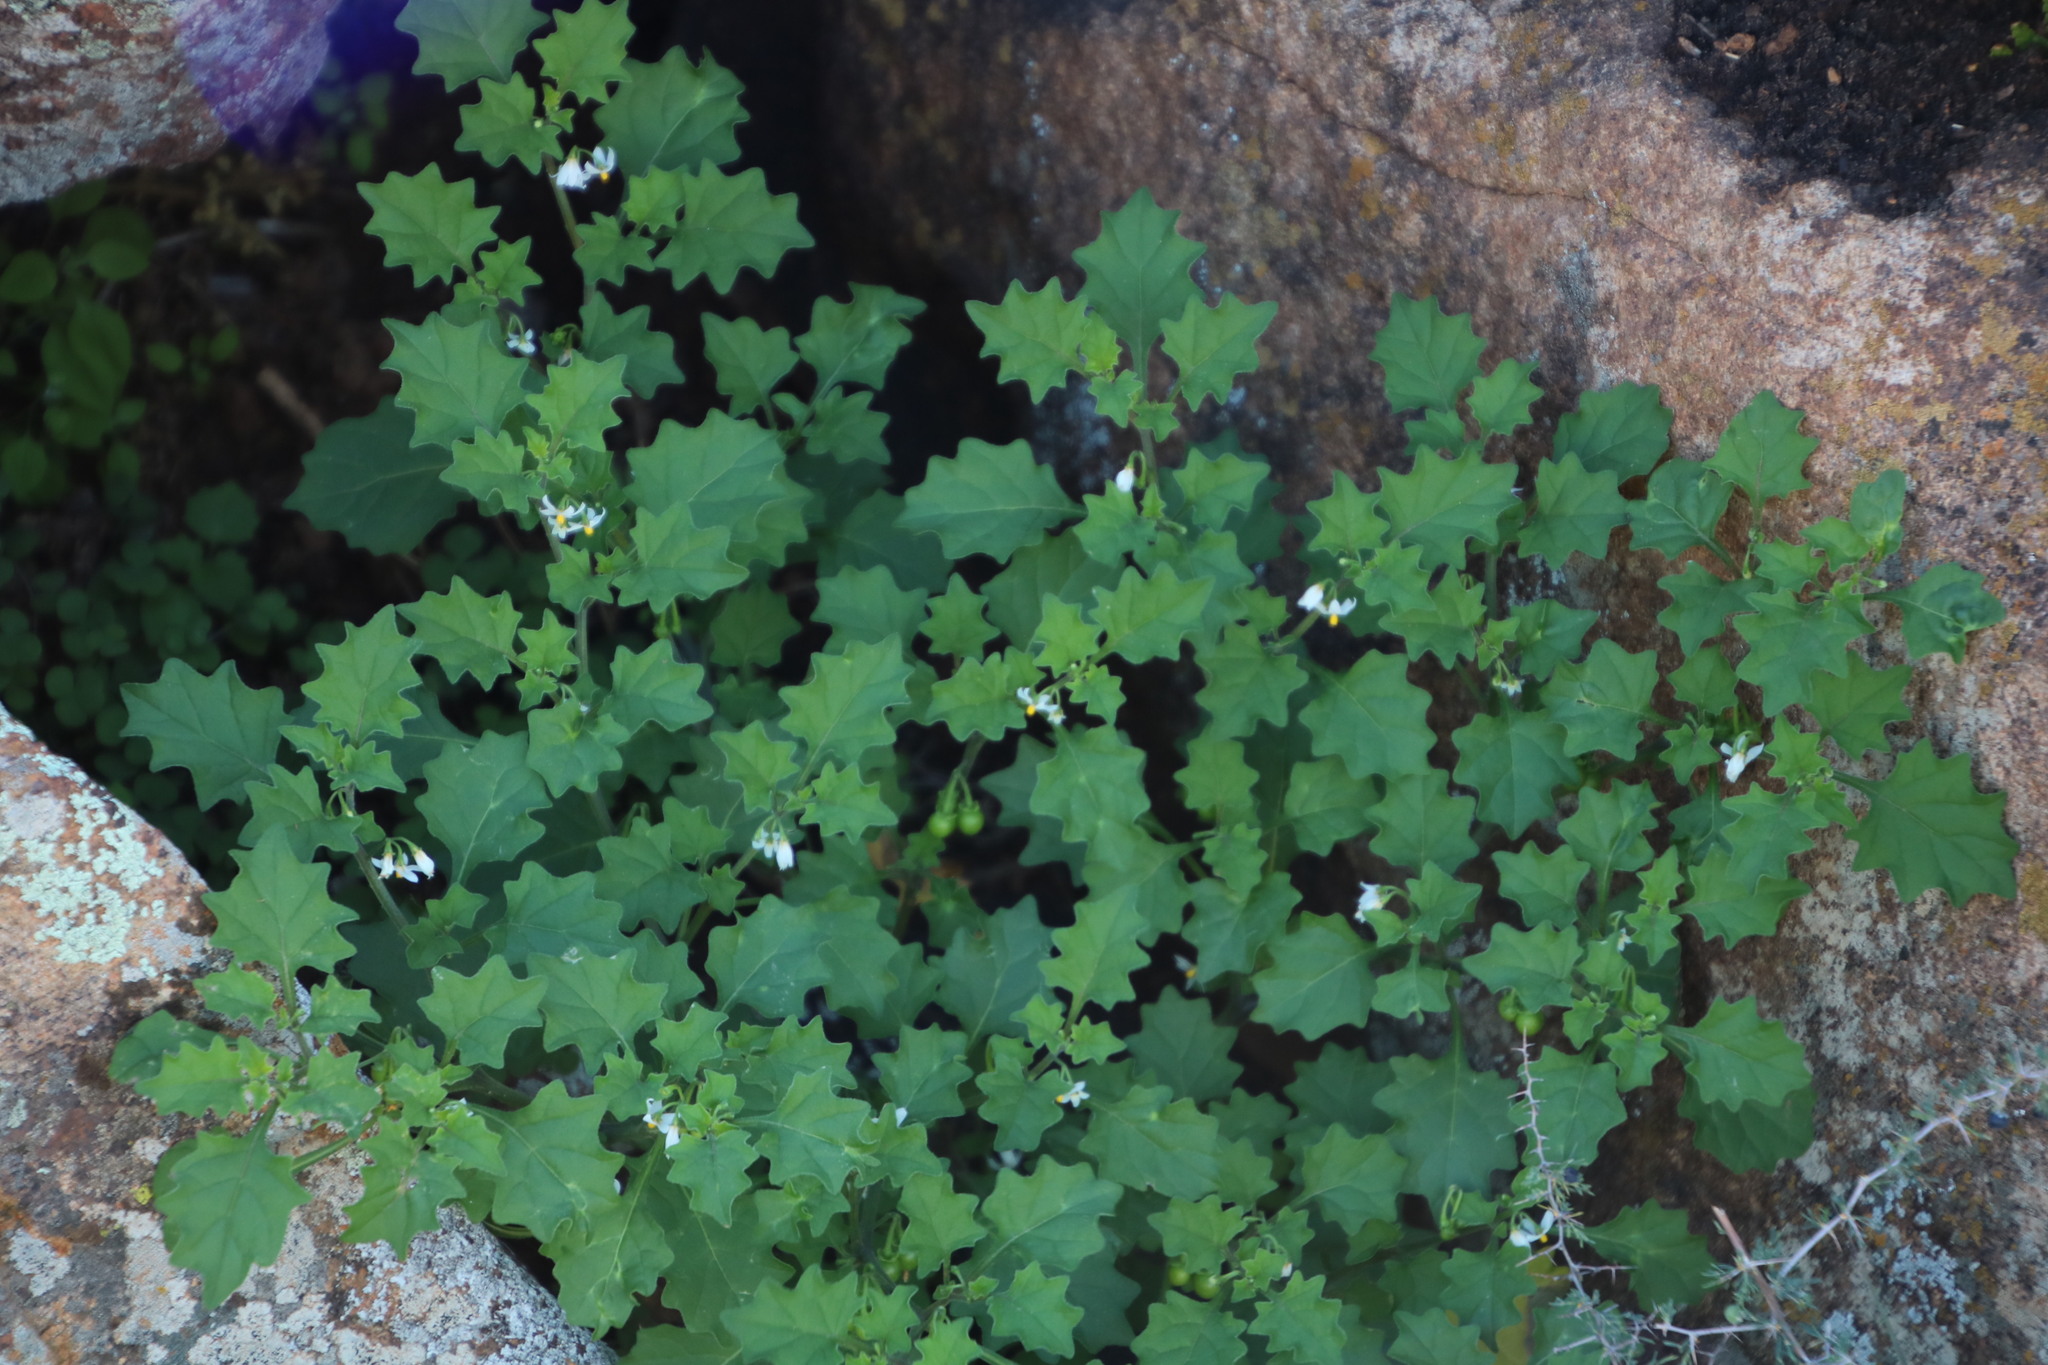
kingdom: Plantae
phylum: Tracheophyta
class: Magnoliopsida
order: Solanales
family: Solanaceae
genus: Solanum
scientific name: Solanum retroflexum
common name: Wonderberry
